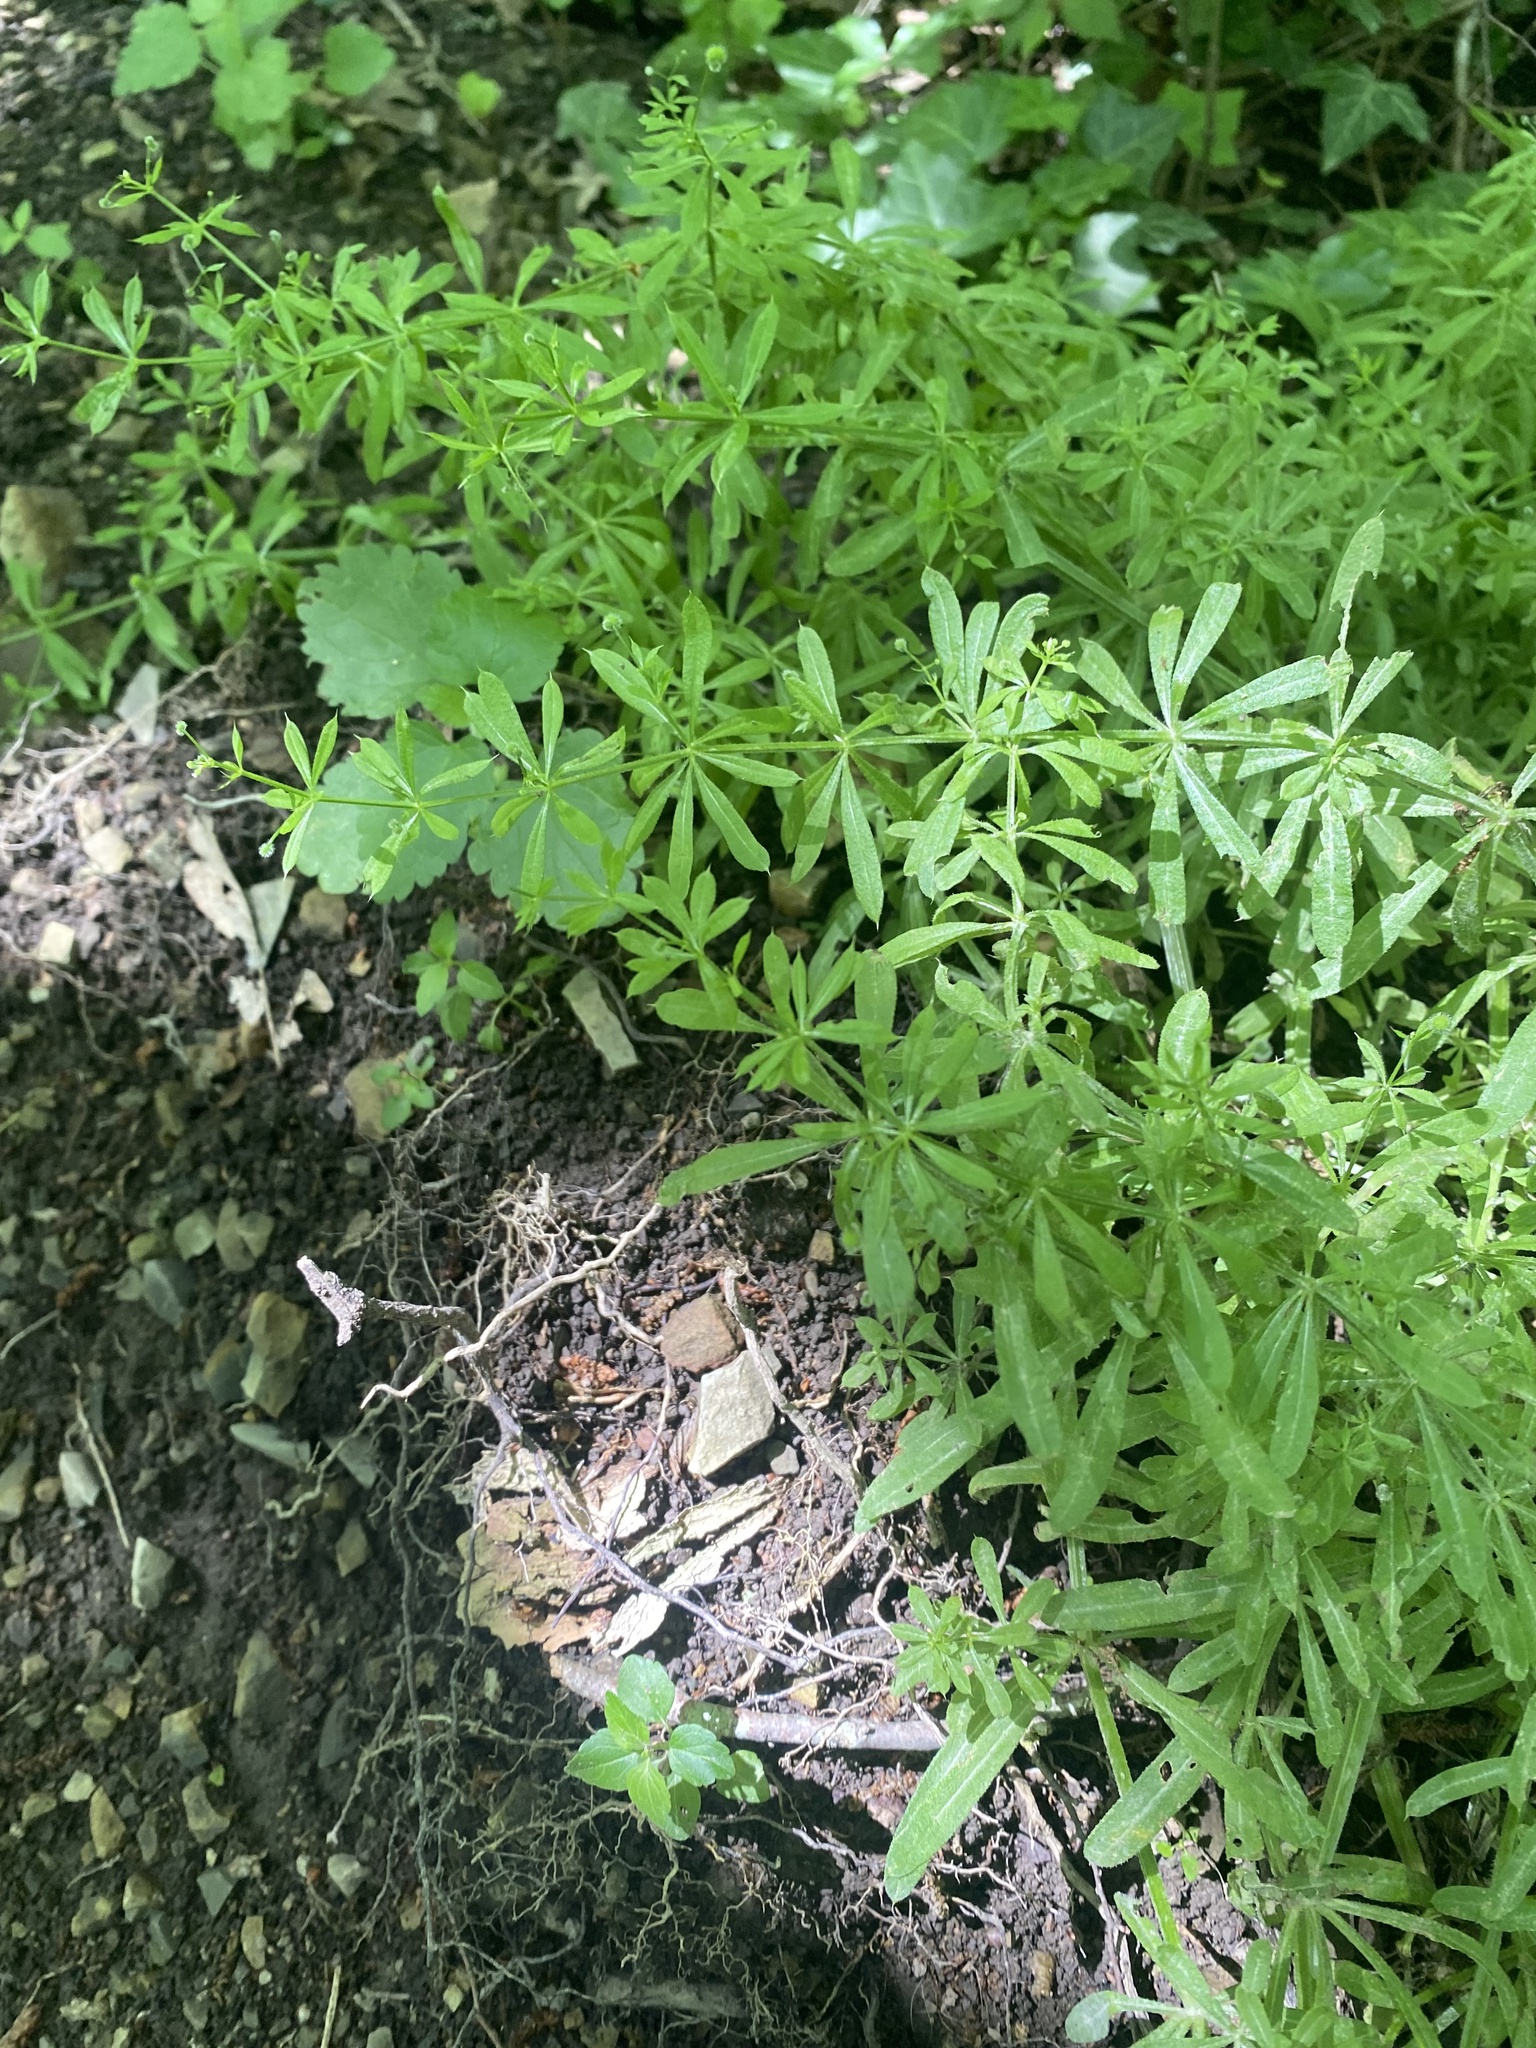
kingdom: Plantae
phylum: Tracheophyta
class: Magnoliopsida
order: Gentianales
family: Rubiaceae
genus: Galium
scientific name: Galium aparine
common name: Cleavers
